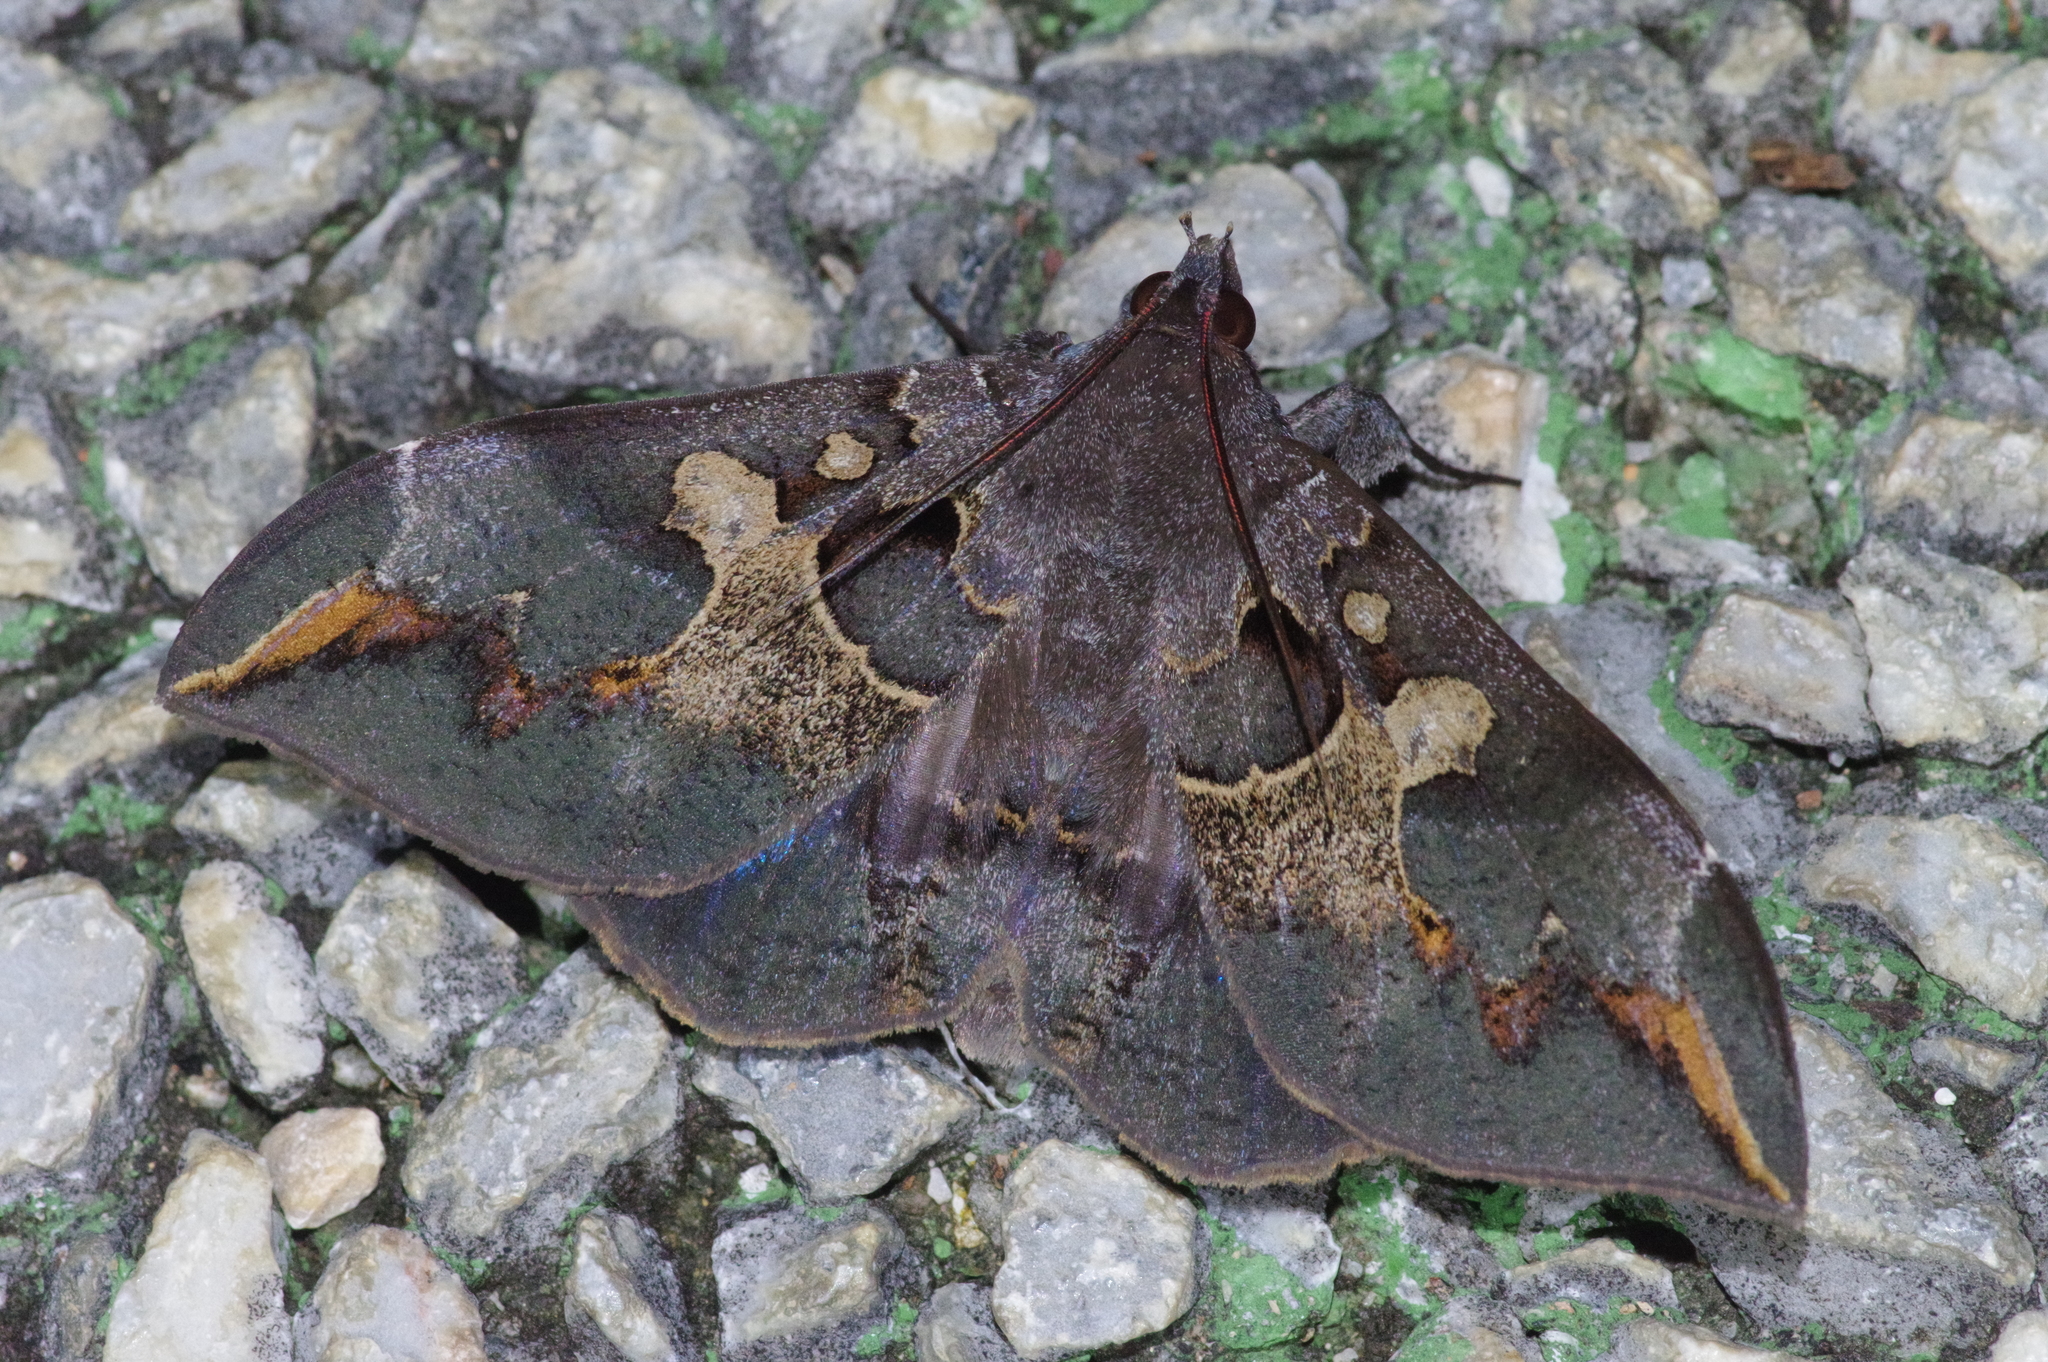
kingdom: Animalia
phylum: Arthropoda
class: Insecta
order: Lepidoptera
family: Erebidae
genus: Ischyja
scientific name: Ischyja ferrifracta
